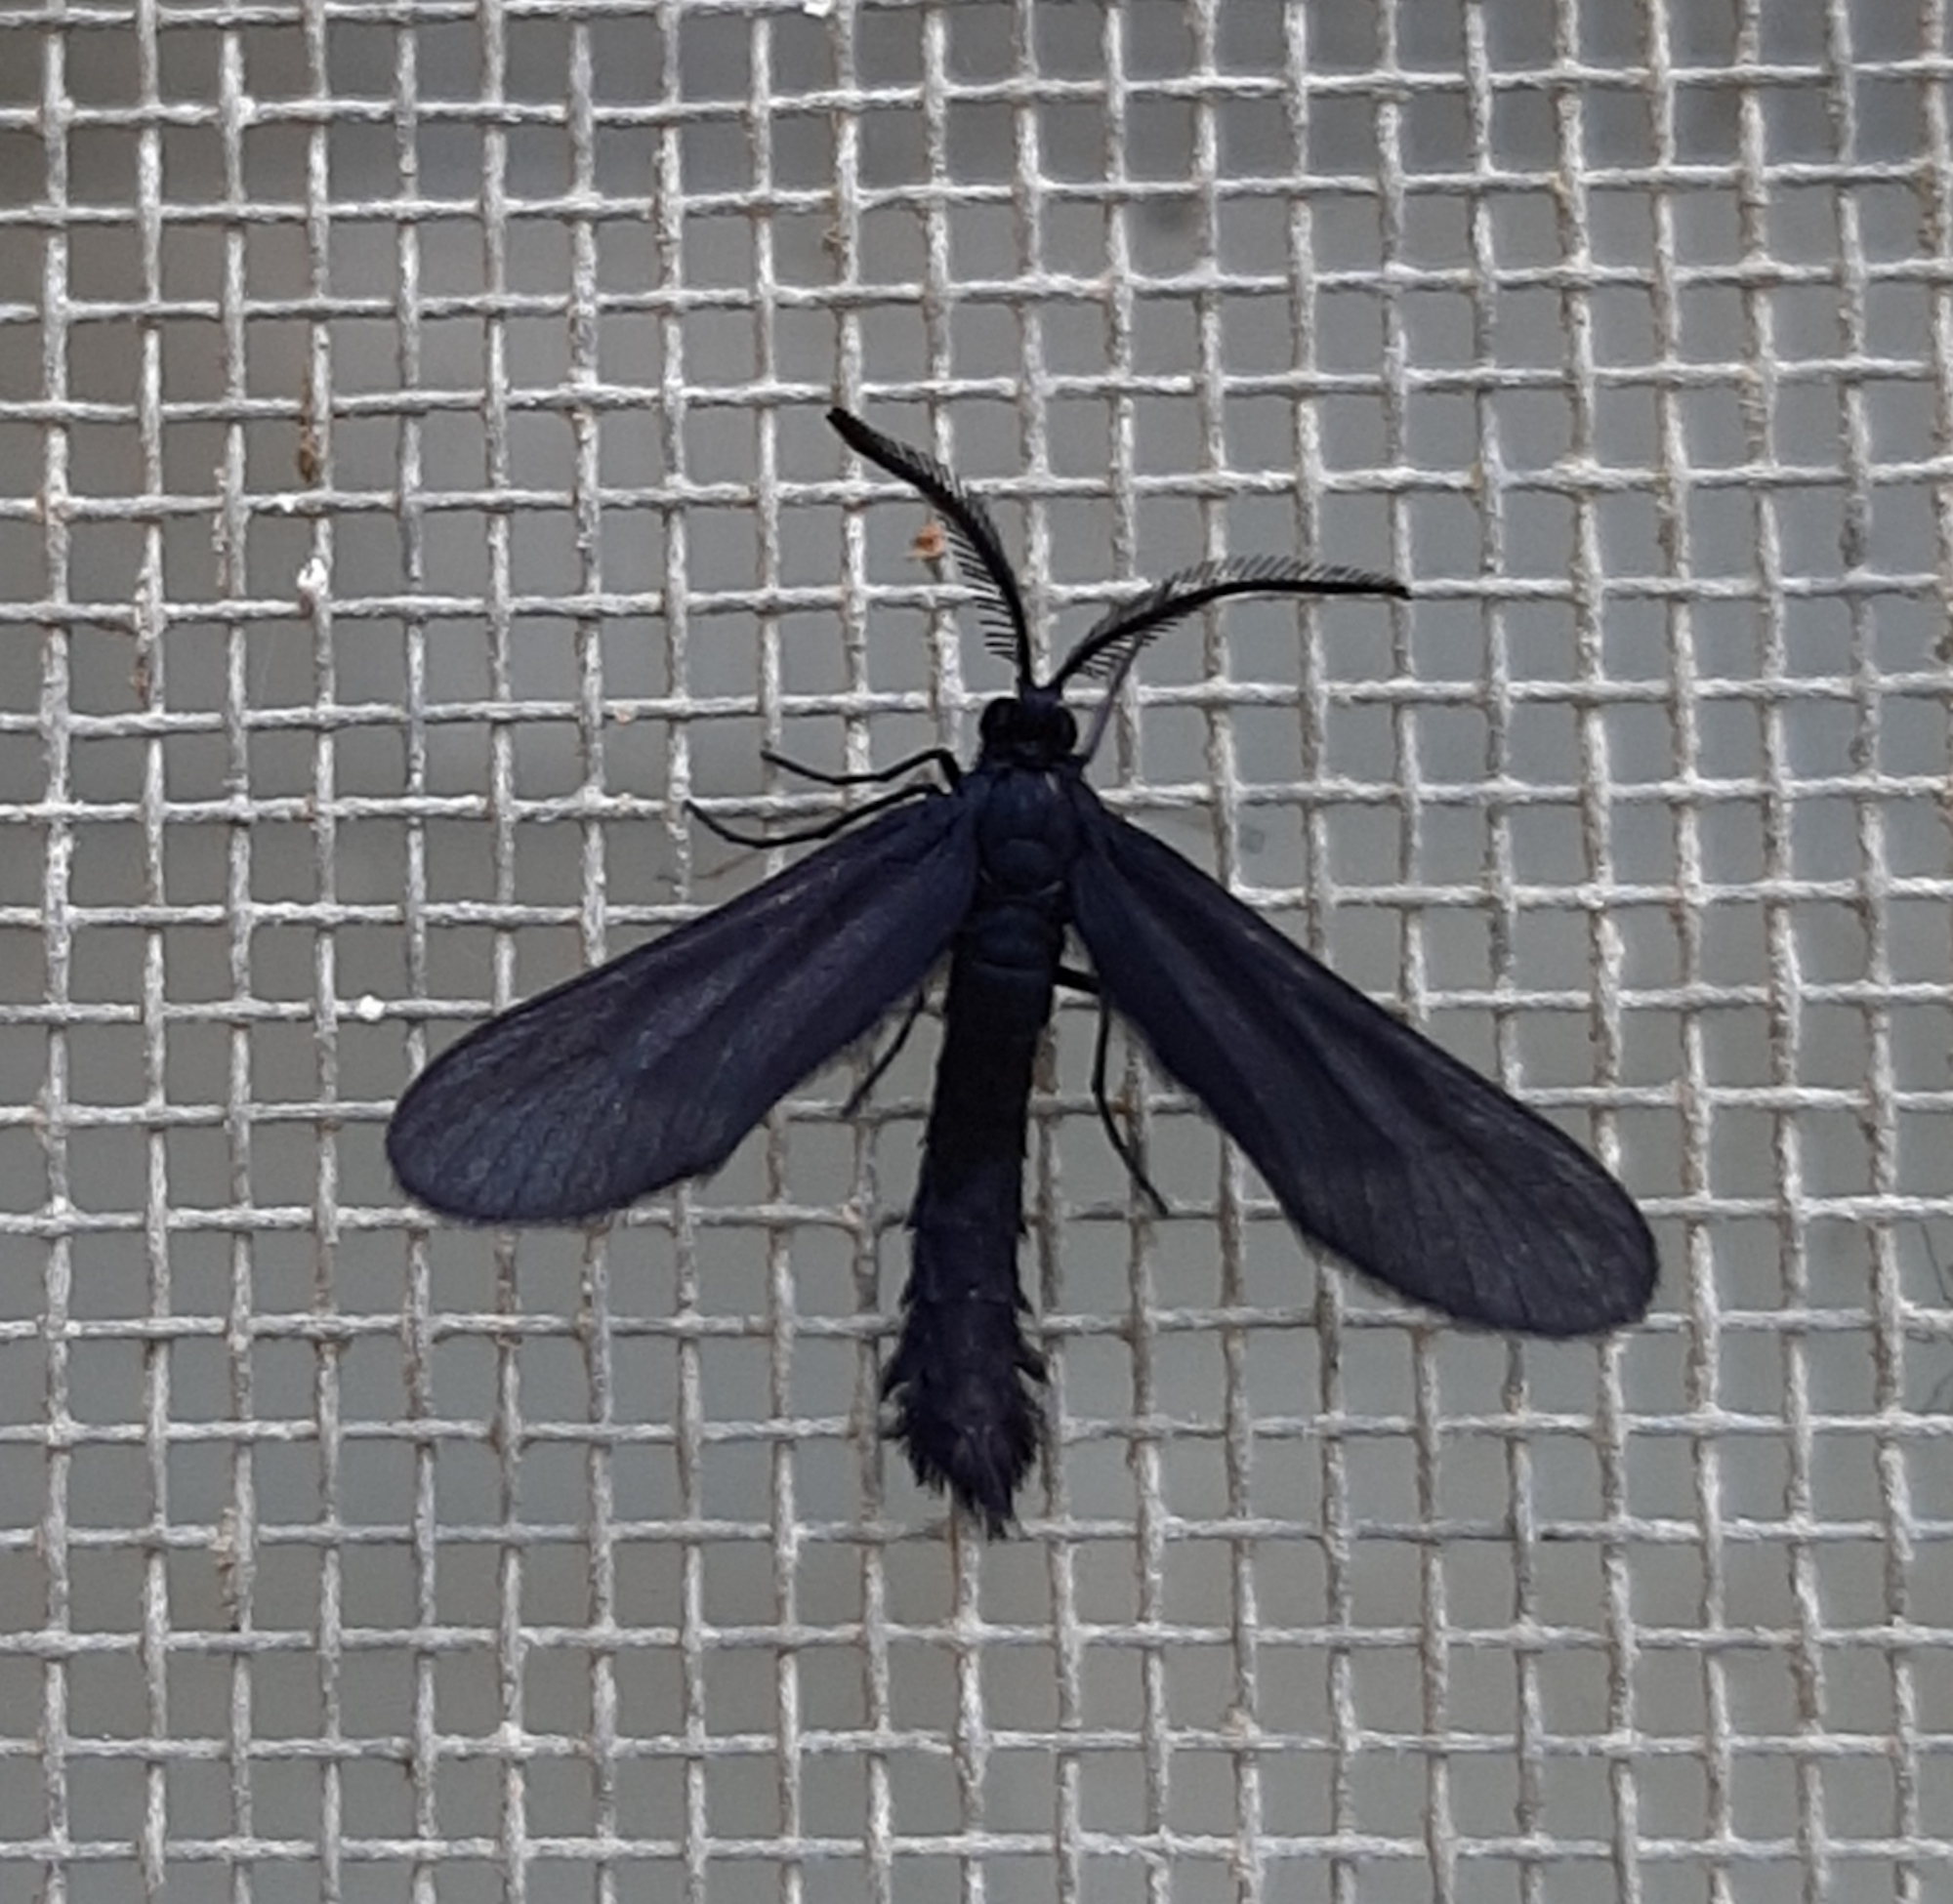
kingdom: Animalia
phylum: Arthropoda
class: Insecta
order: Lepidoptera
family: Zygaenidae
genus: Harrisina
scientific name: Harrisina coracina
